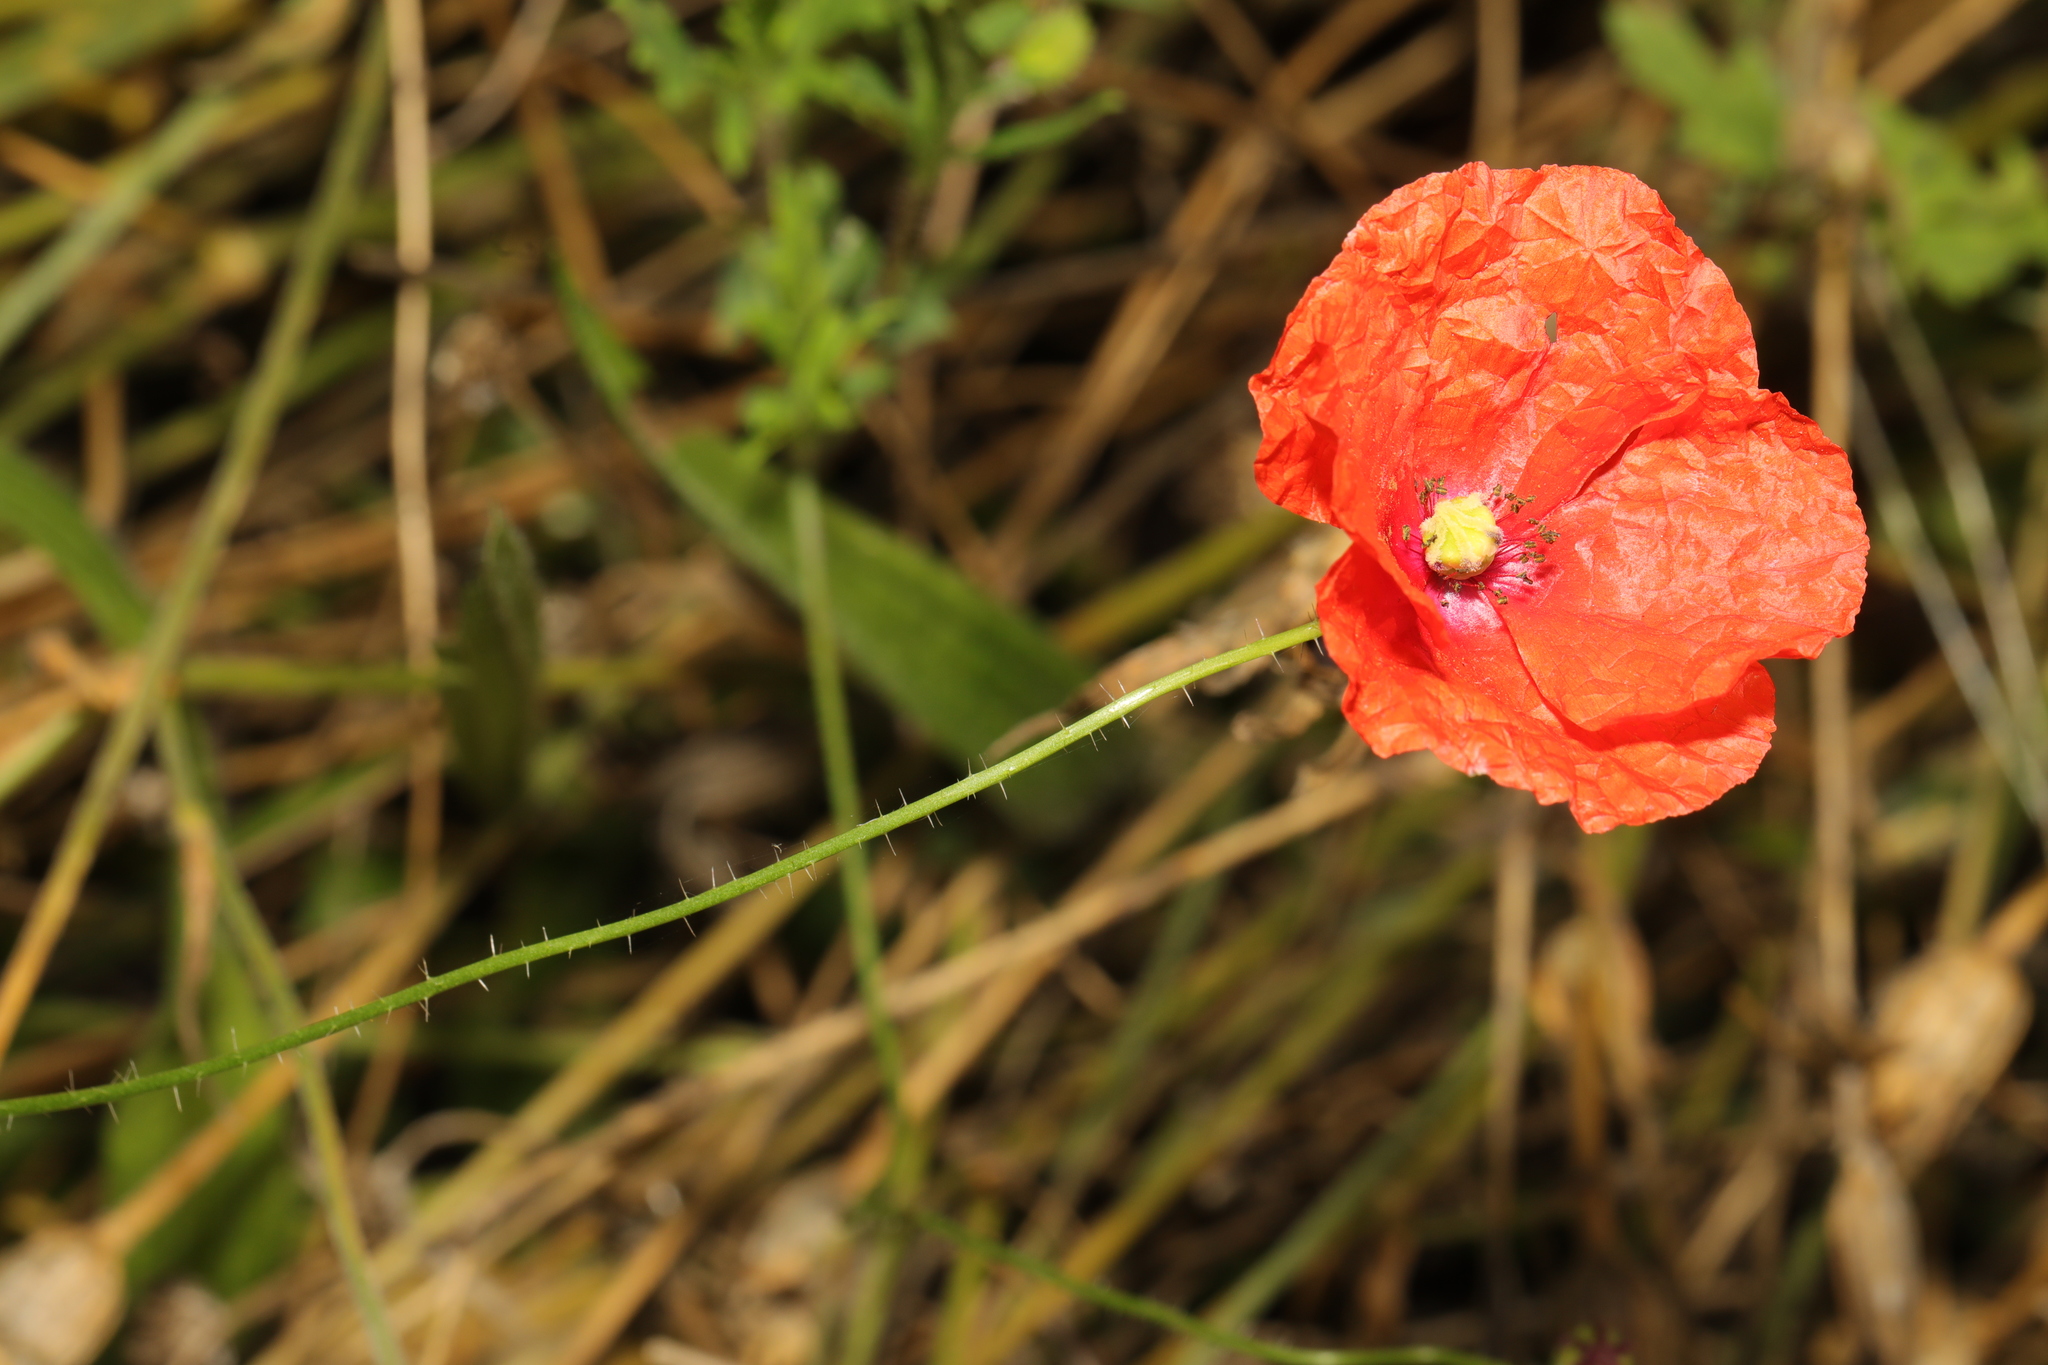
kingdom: Plantae
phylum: Tracheophyta
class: Magnoliopsida
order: Ranunculales
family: Papaveraceae
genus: Papaver
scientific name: Papaver rhoeas
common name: Corn poppy
